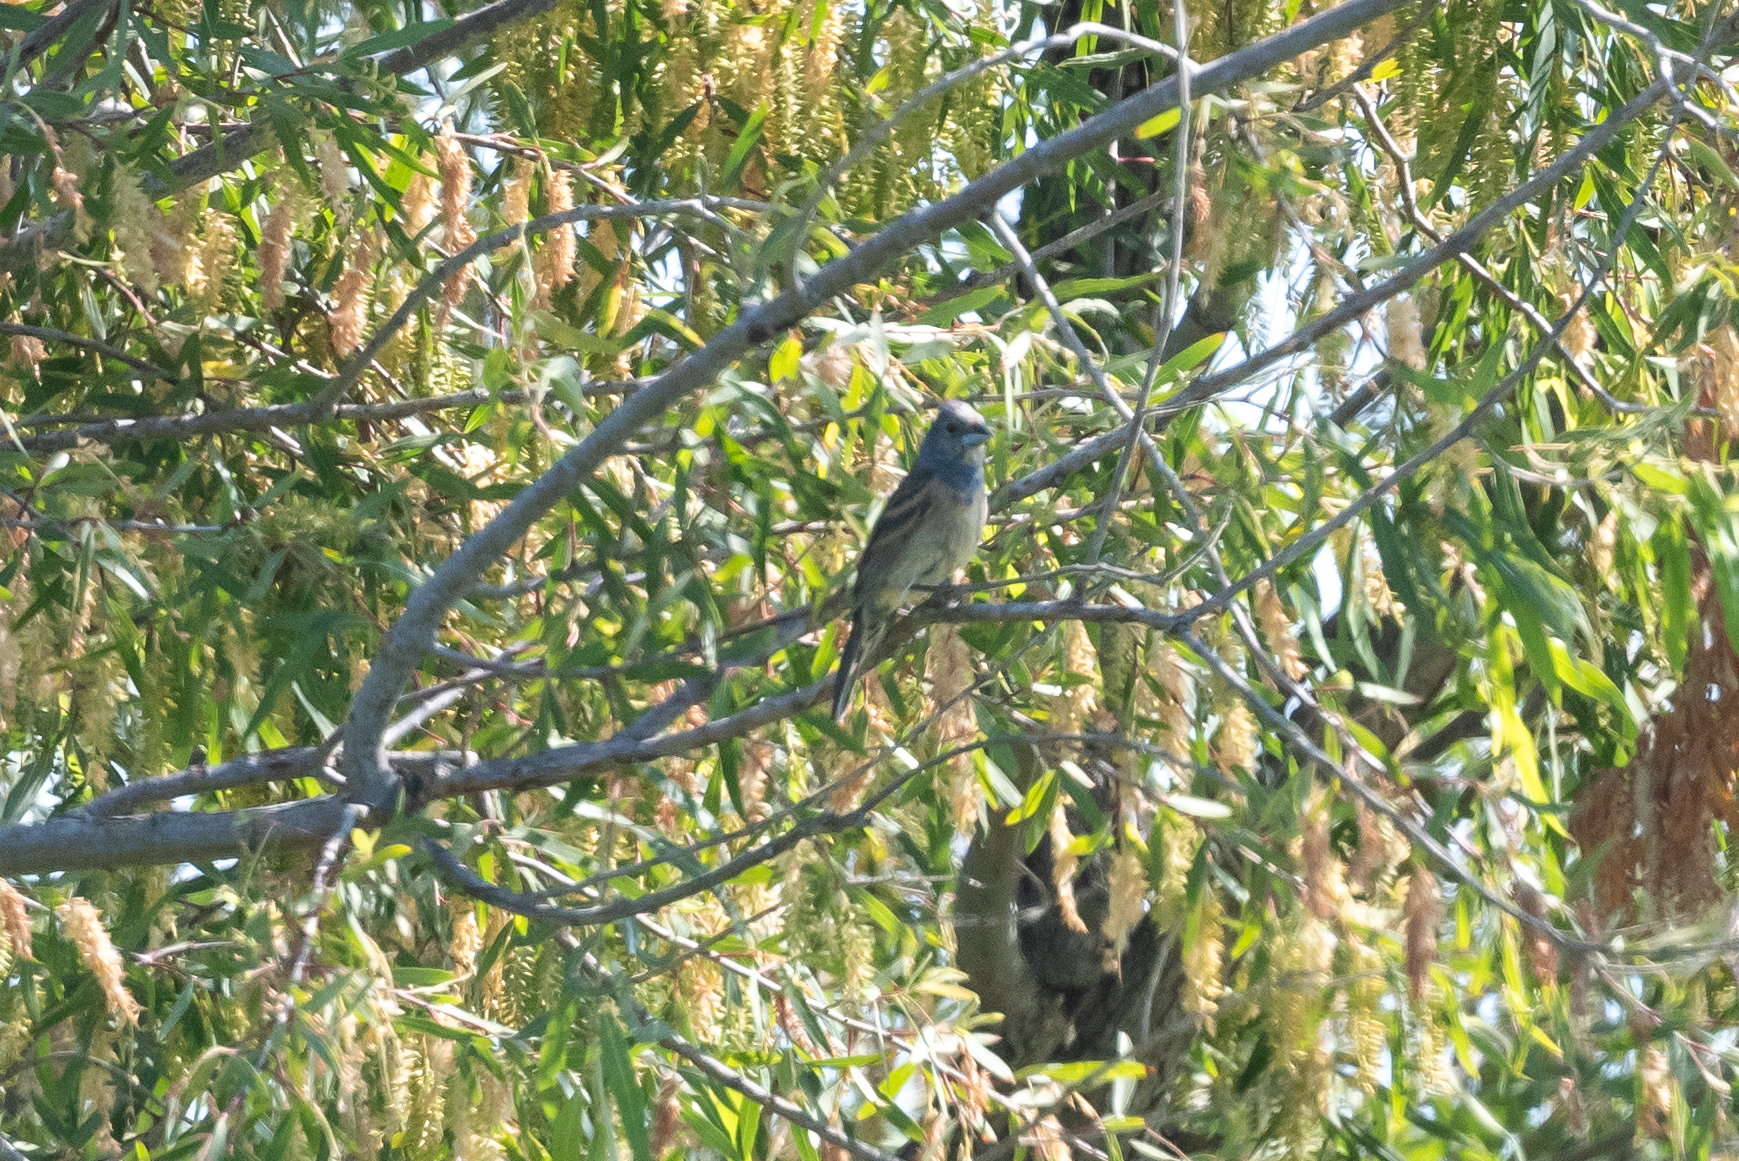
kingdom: Animalia
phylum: Chordata
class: Aves
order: Passeriformes
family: Cardinalidae
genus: Passerina
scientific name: Passerina caerulea
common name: Blue grosbeak
